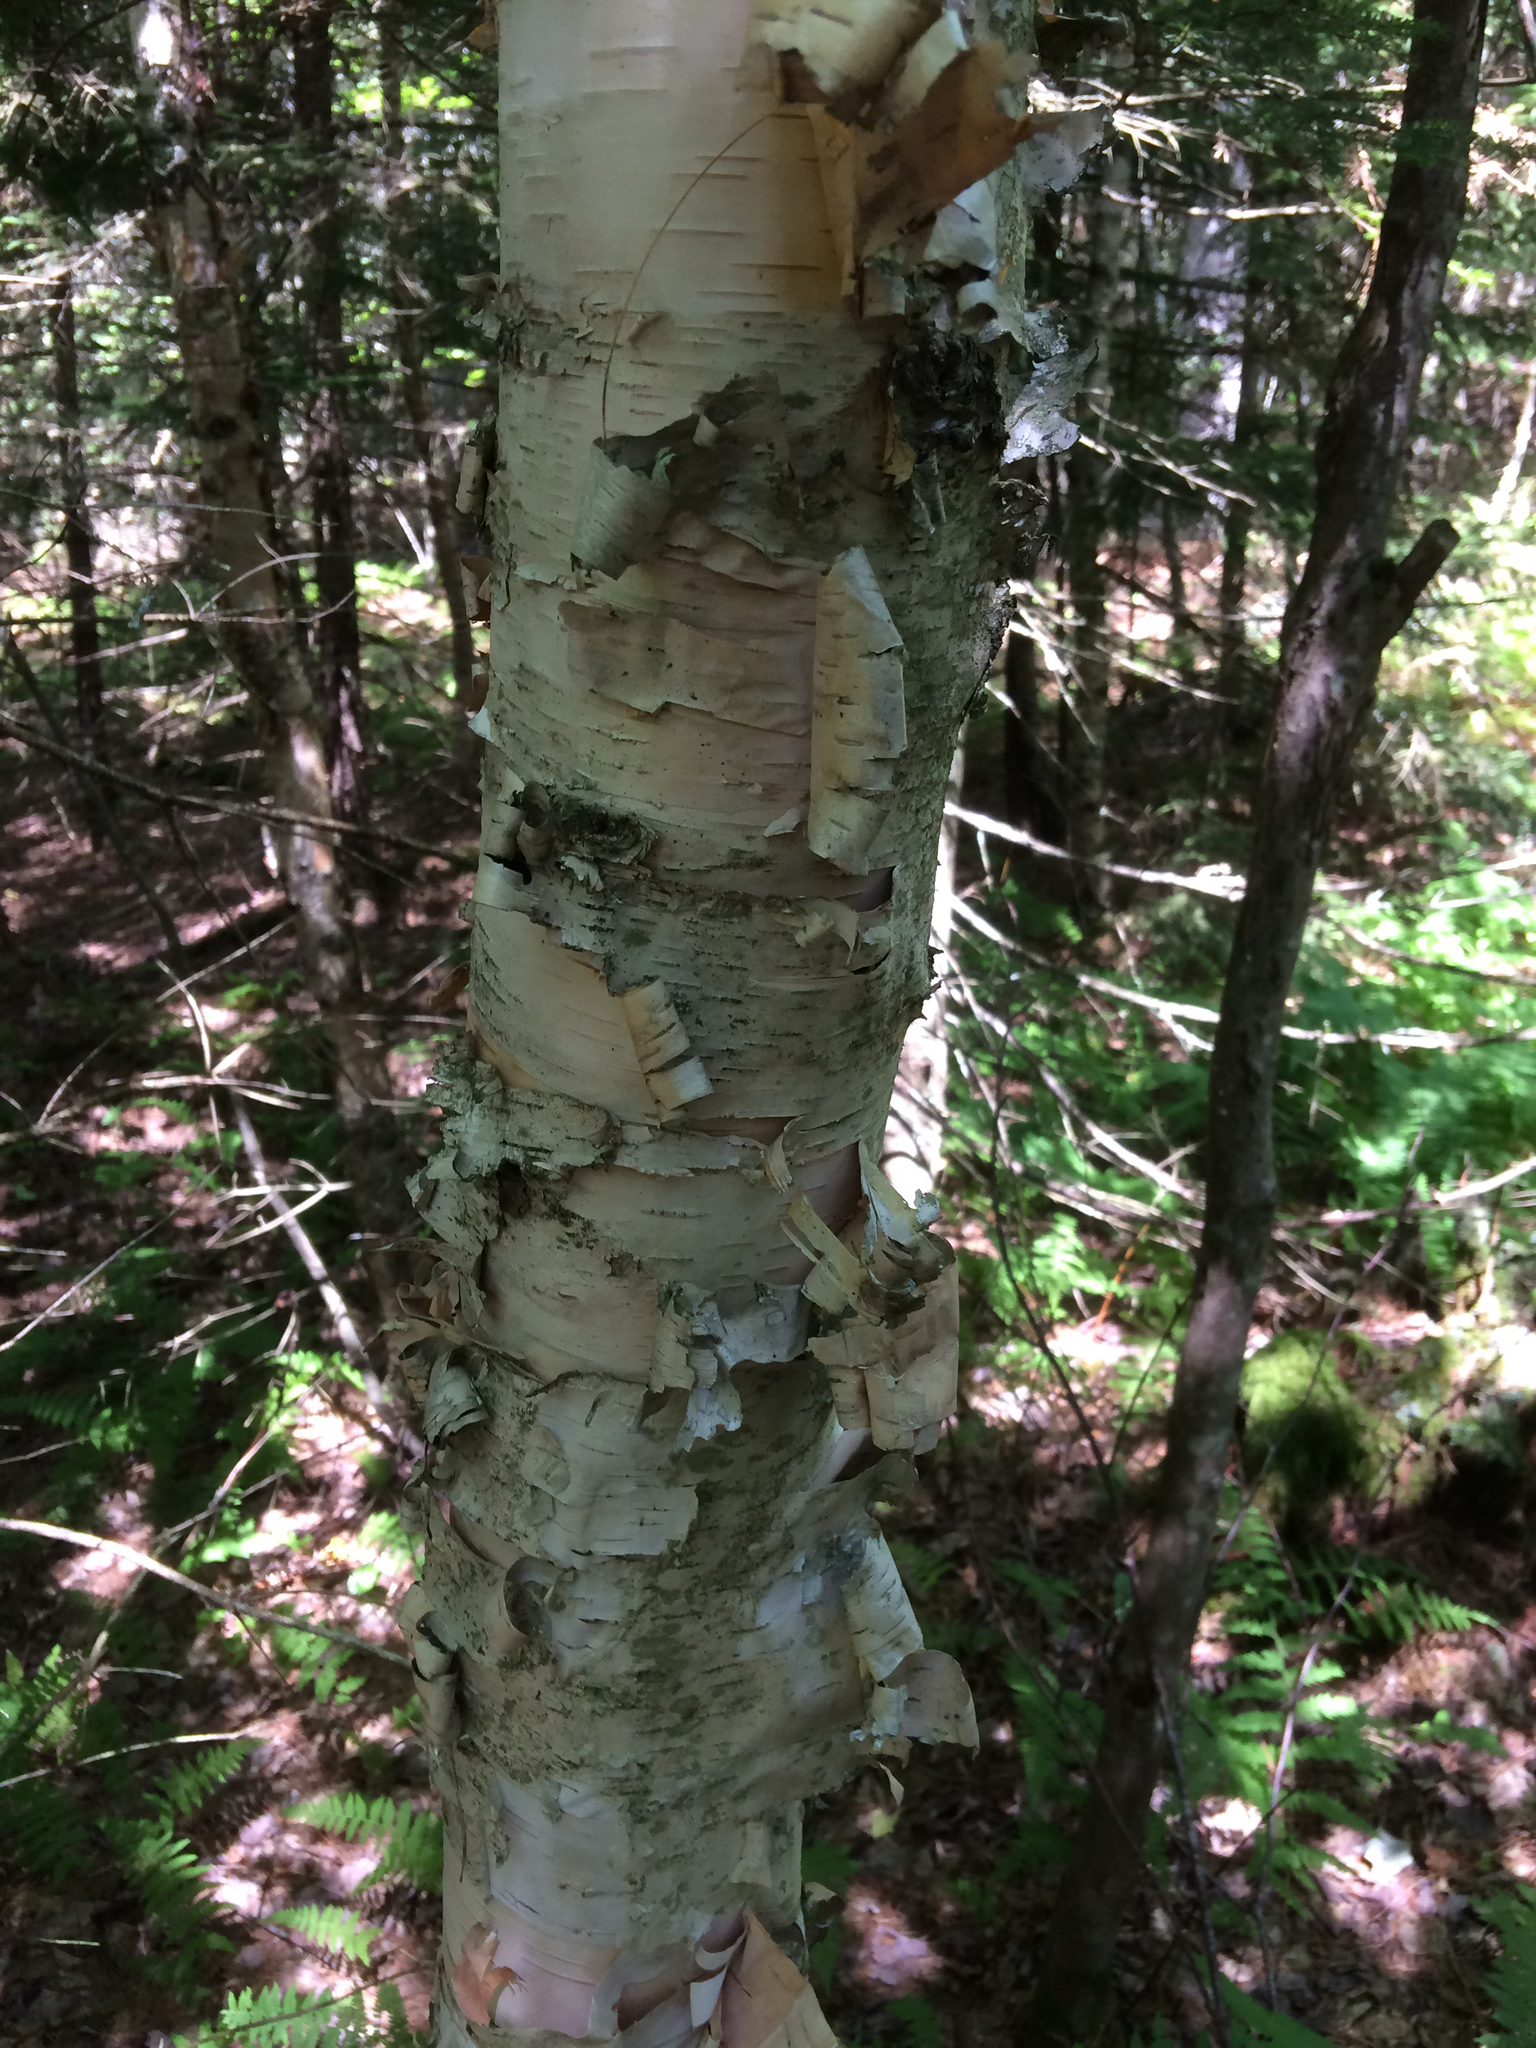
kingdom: Plantae
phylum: Tracheophyta
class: Magnoliopsida
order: Fagales
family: Betulaceae
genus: Betula
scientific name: Betula papyrifera
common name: Paper birch
